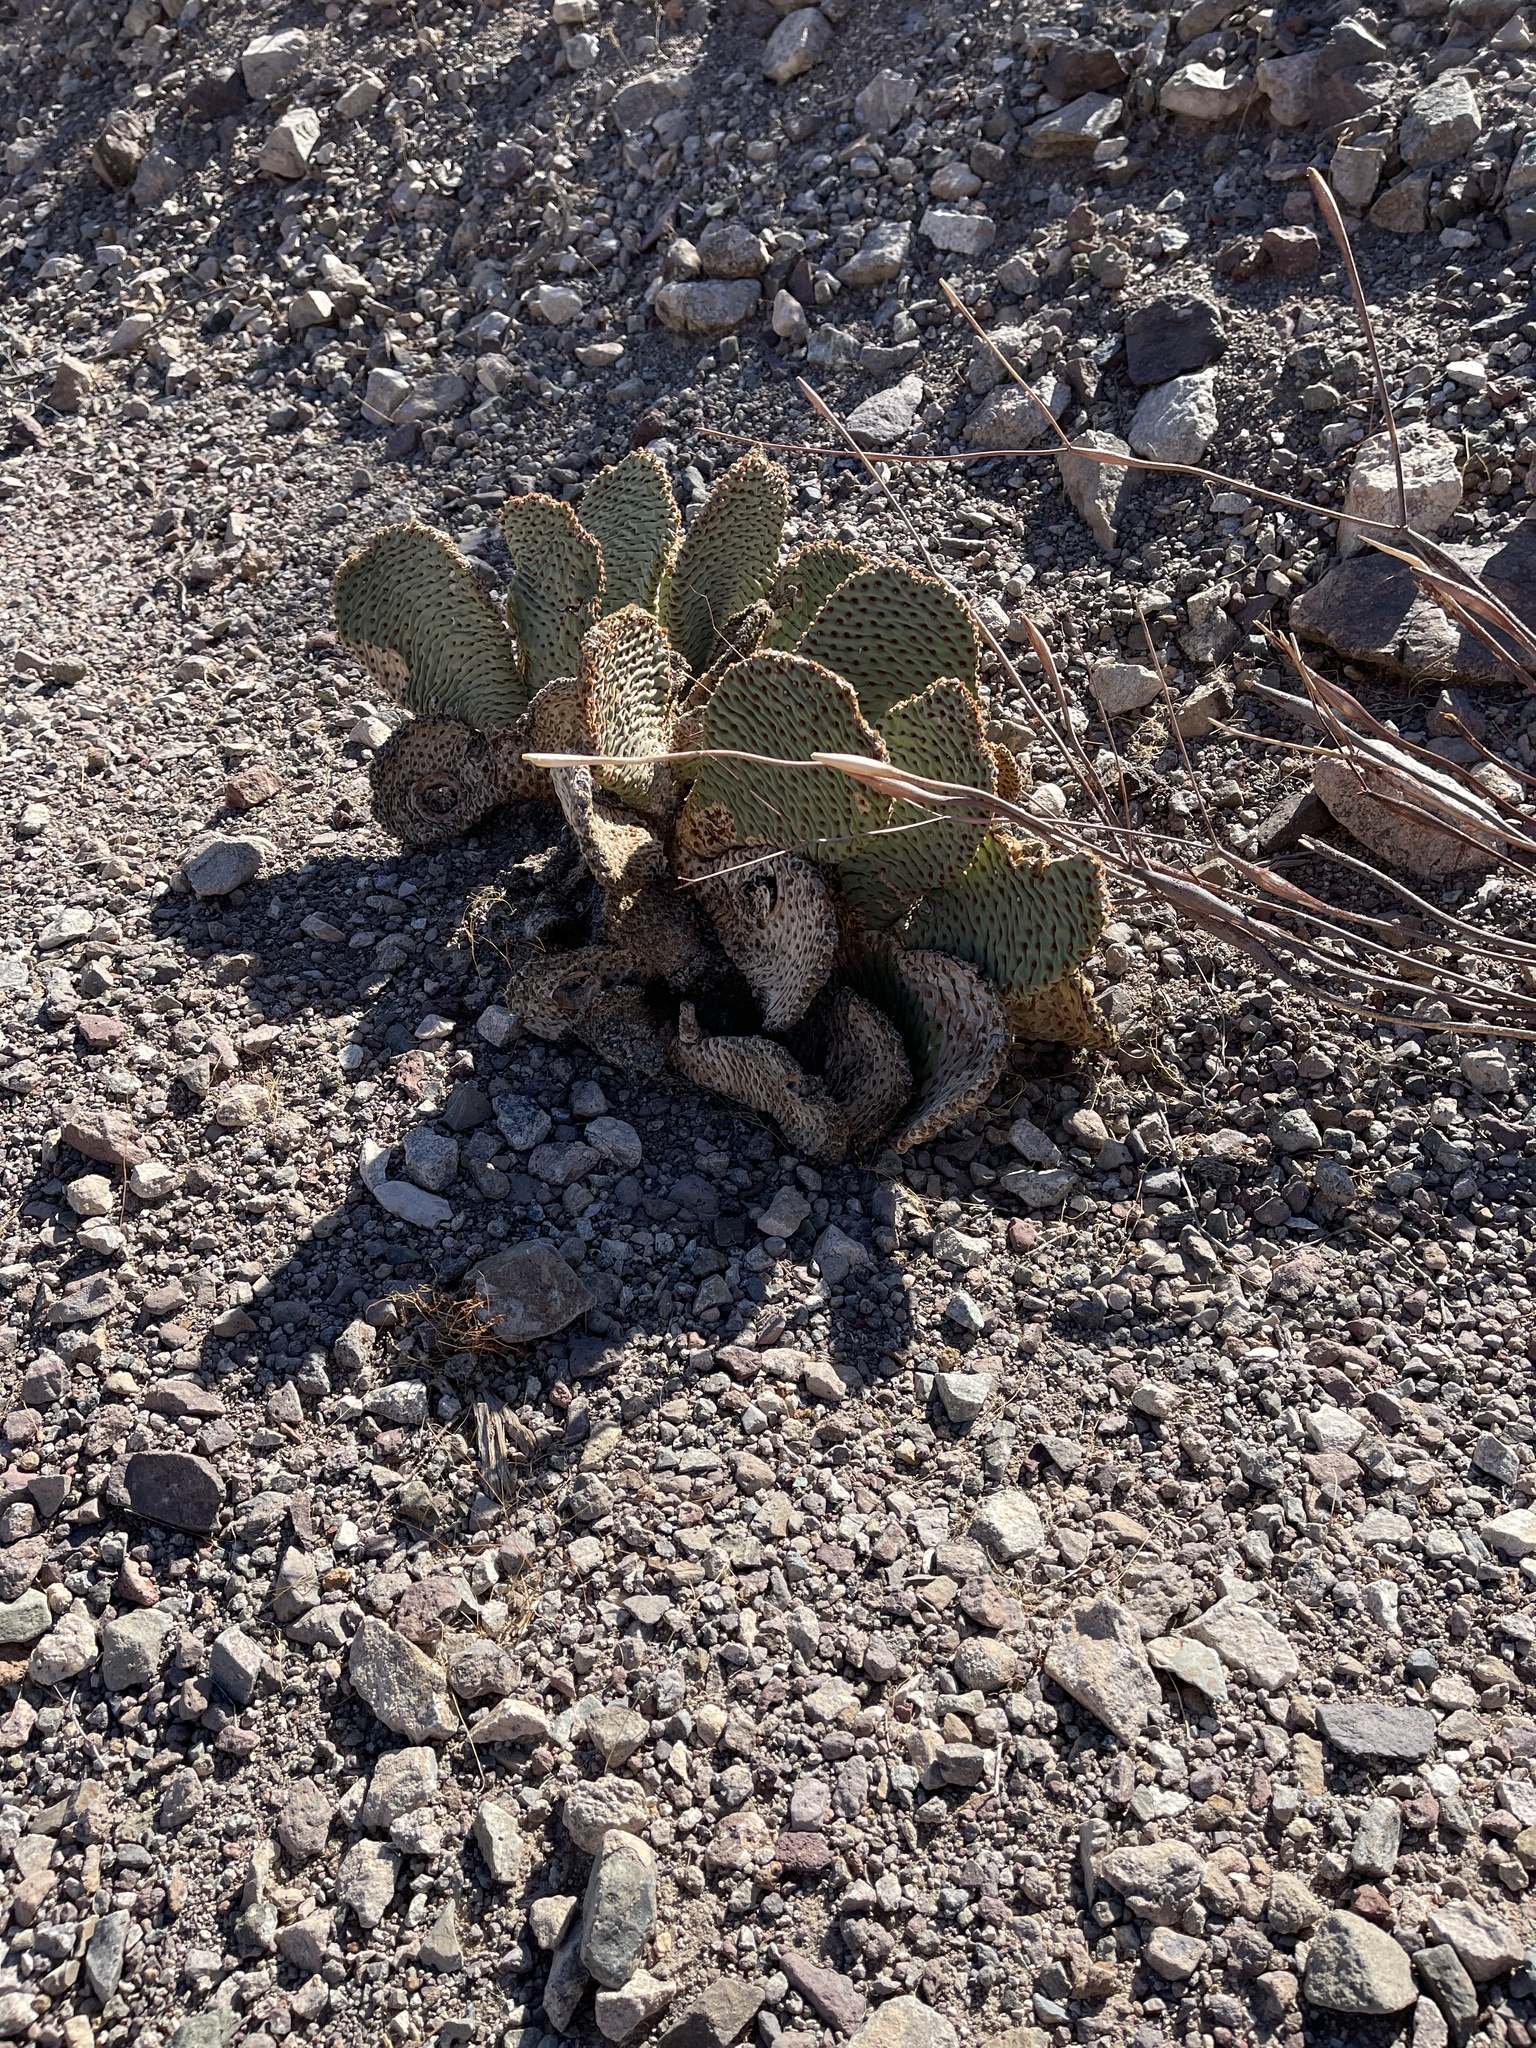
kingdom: Plantae
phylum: Tracheophyta
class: Magnoliopsida
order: Caryophyllales
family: Cactaceae
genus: Opuntia
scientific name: Opuntia basilaris
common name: Beavertail prickly-pear
